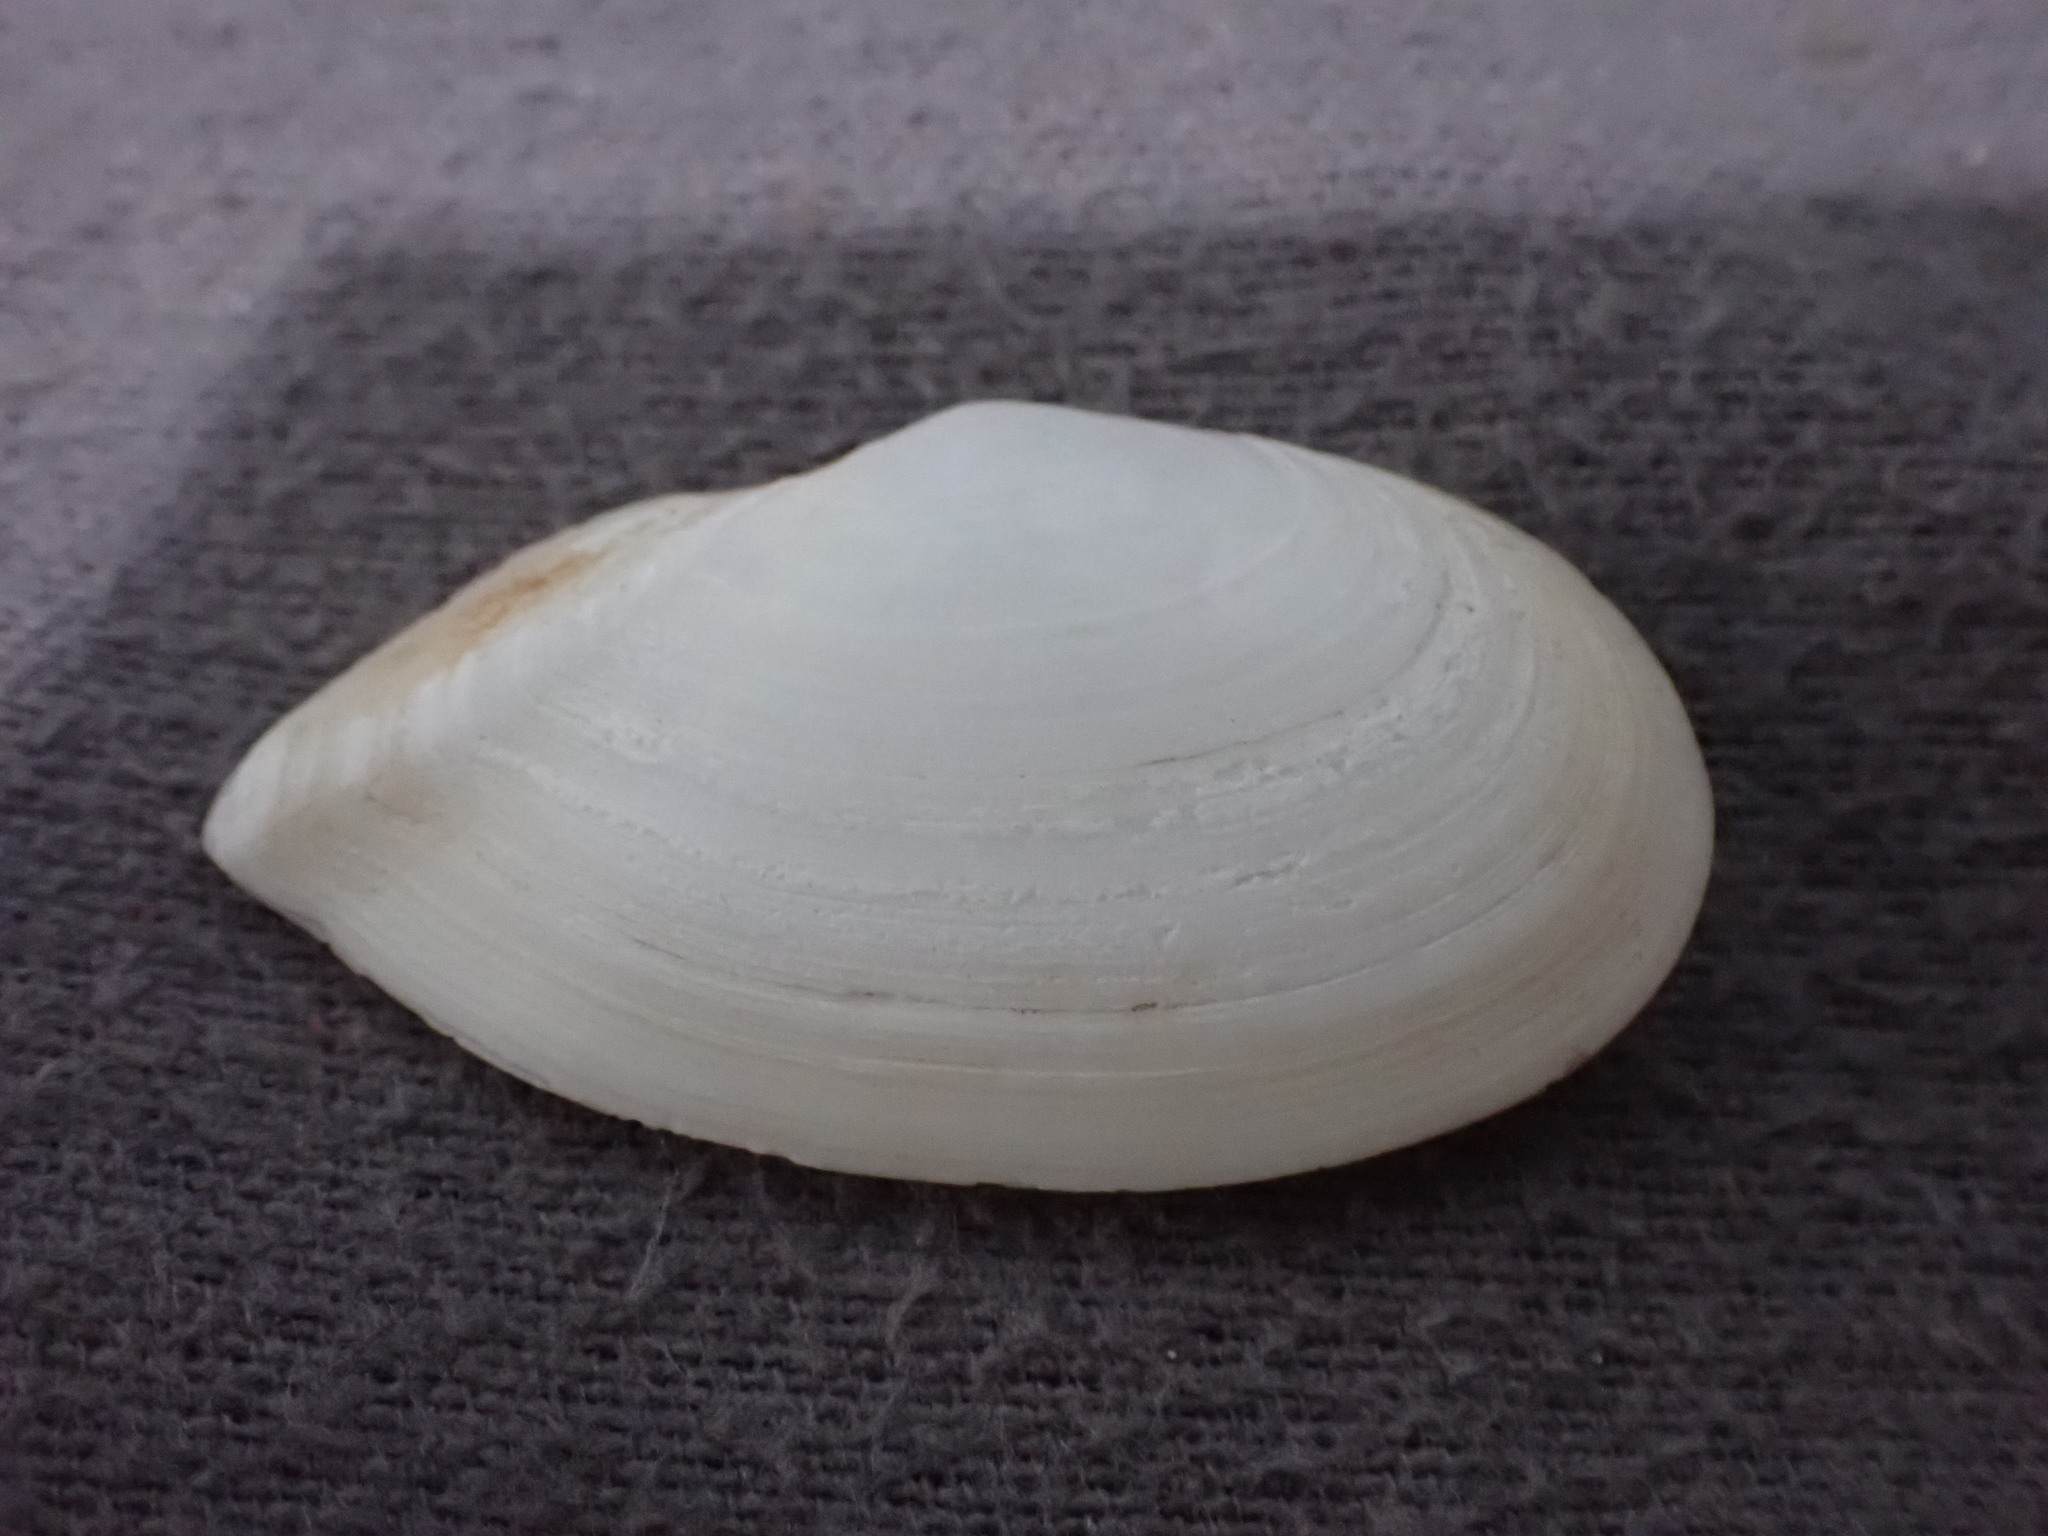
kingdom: Animalia
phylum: Mollusca
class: Bivalvia
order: Cardiida
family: Tellinidae
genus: Ardeamya
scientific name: Ardeamya spenceri
